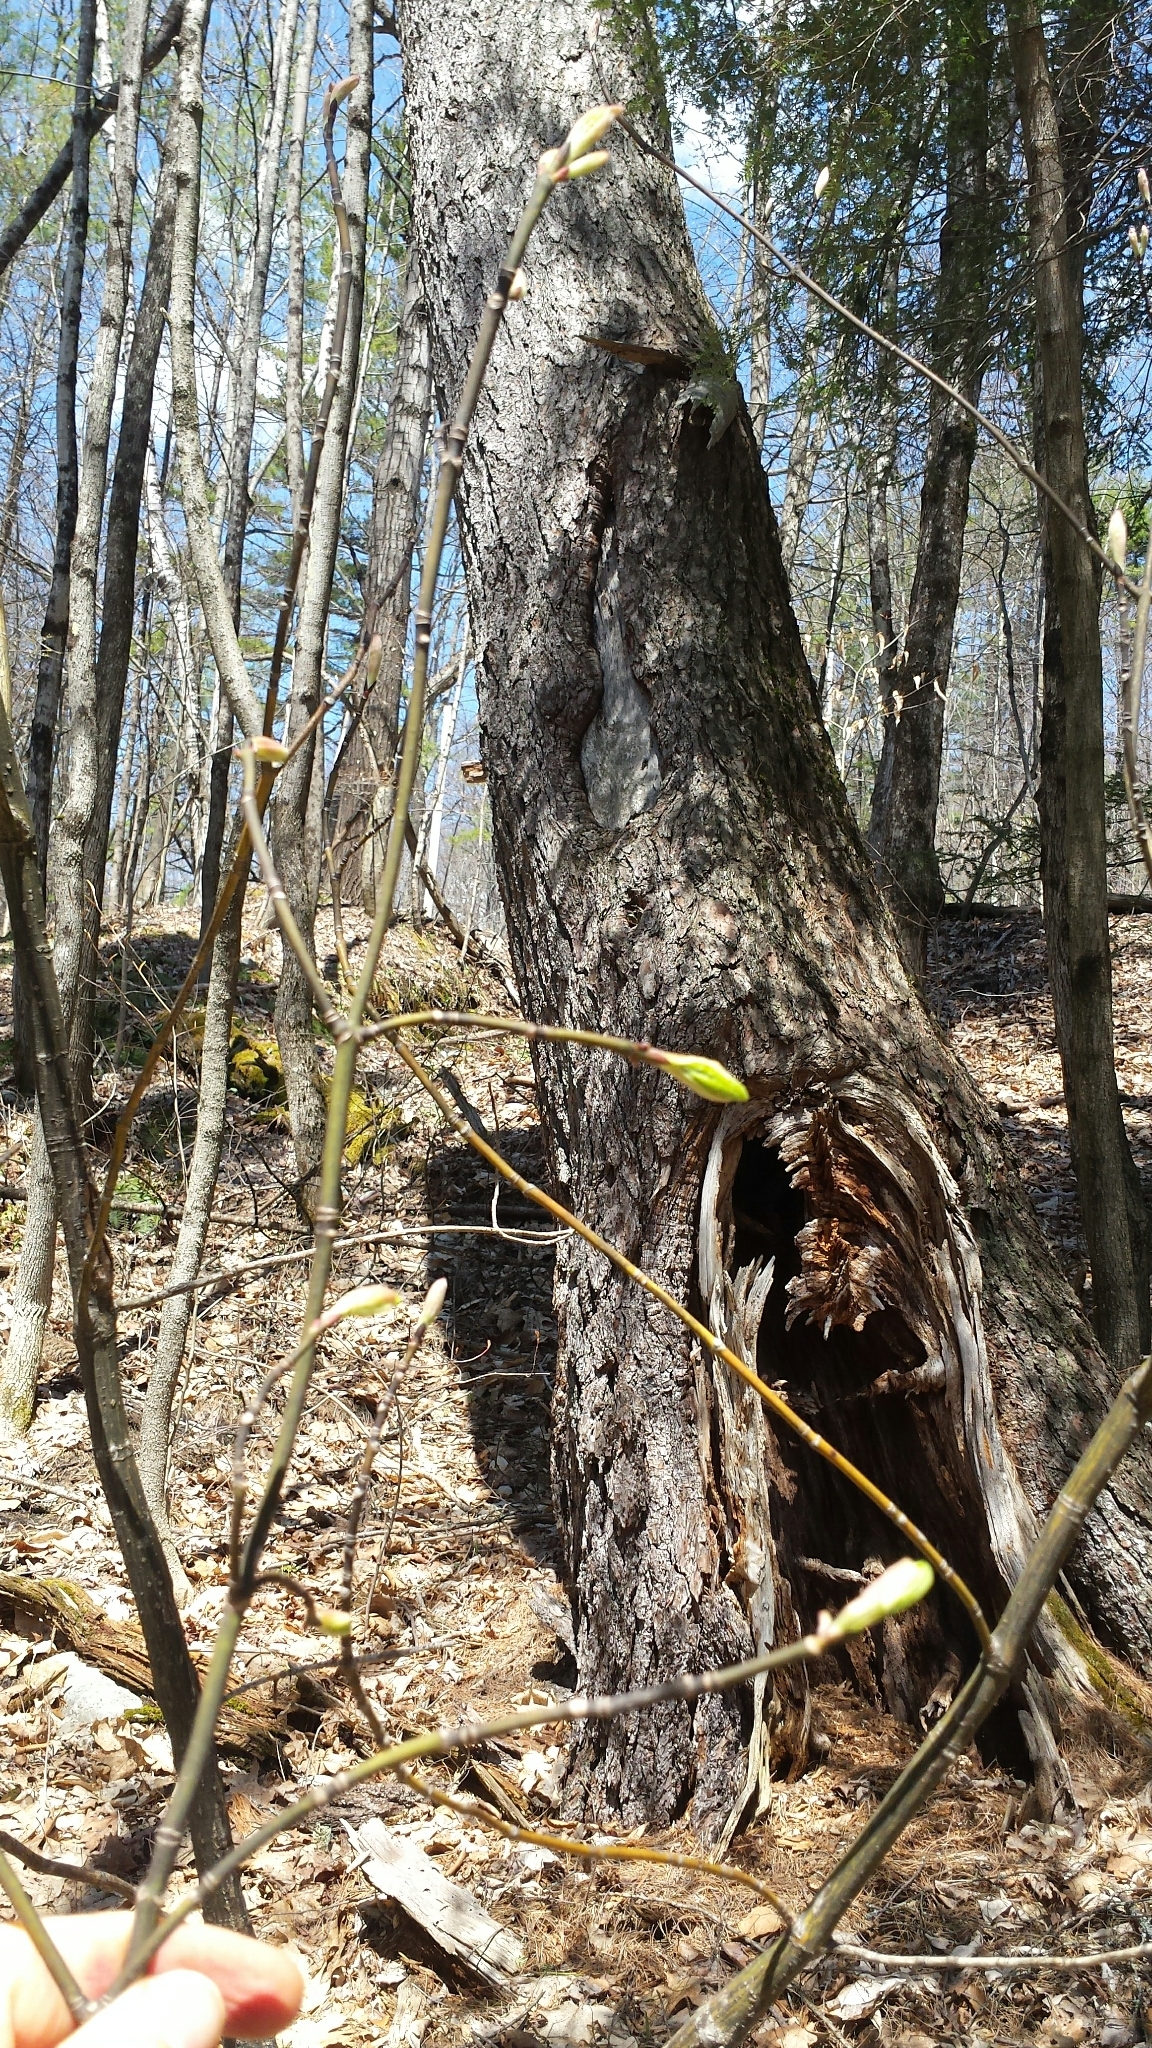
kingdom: Plantae
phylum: Tracheophyta
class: Magnoliopsida
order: Sapindales
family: Sapindaceae
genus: Acer
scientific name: Acer pensylvanicum
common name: Moosewood
